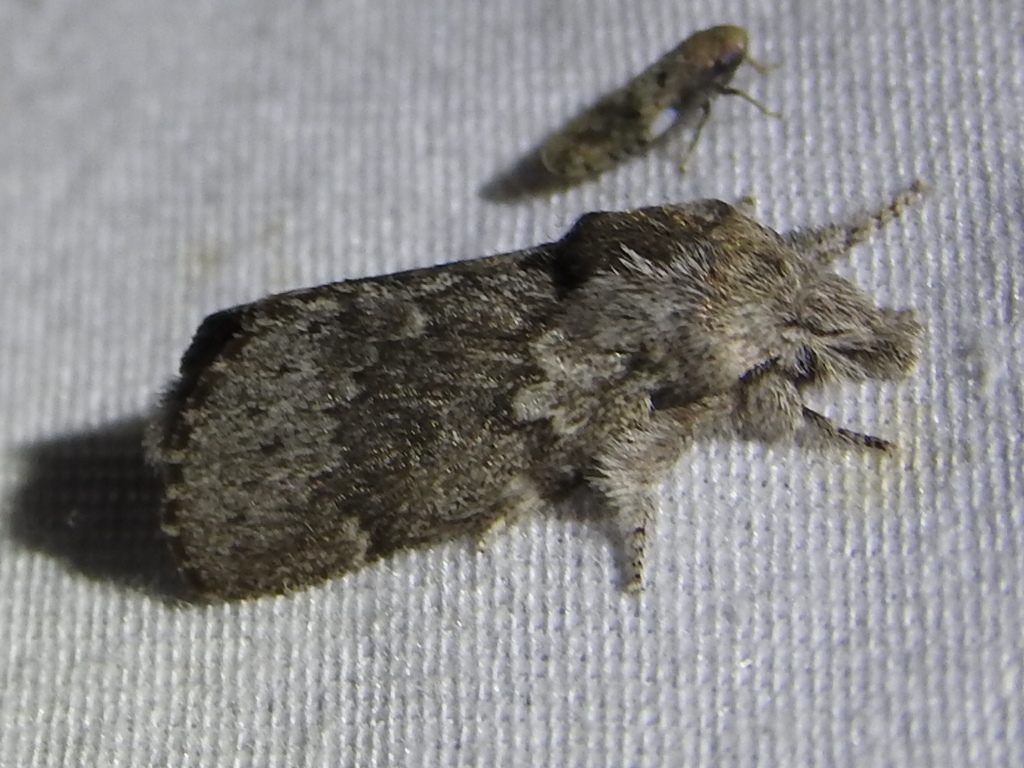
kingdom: Animalia
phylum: Arthropoda
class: Insecta
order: Lepidoptera
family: Lasiocampidae
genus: Heteropacha
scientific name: Heteropacha rileyana
